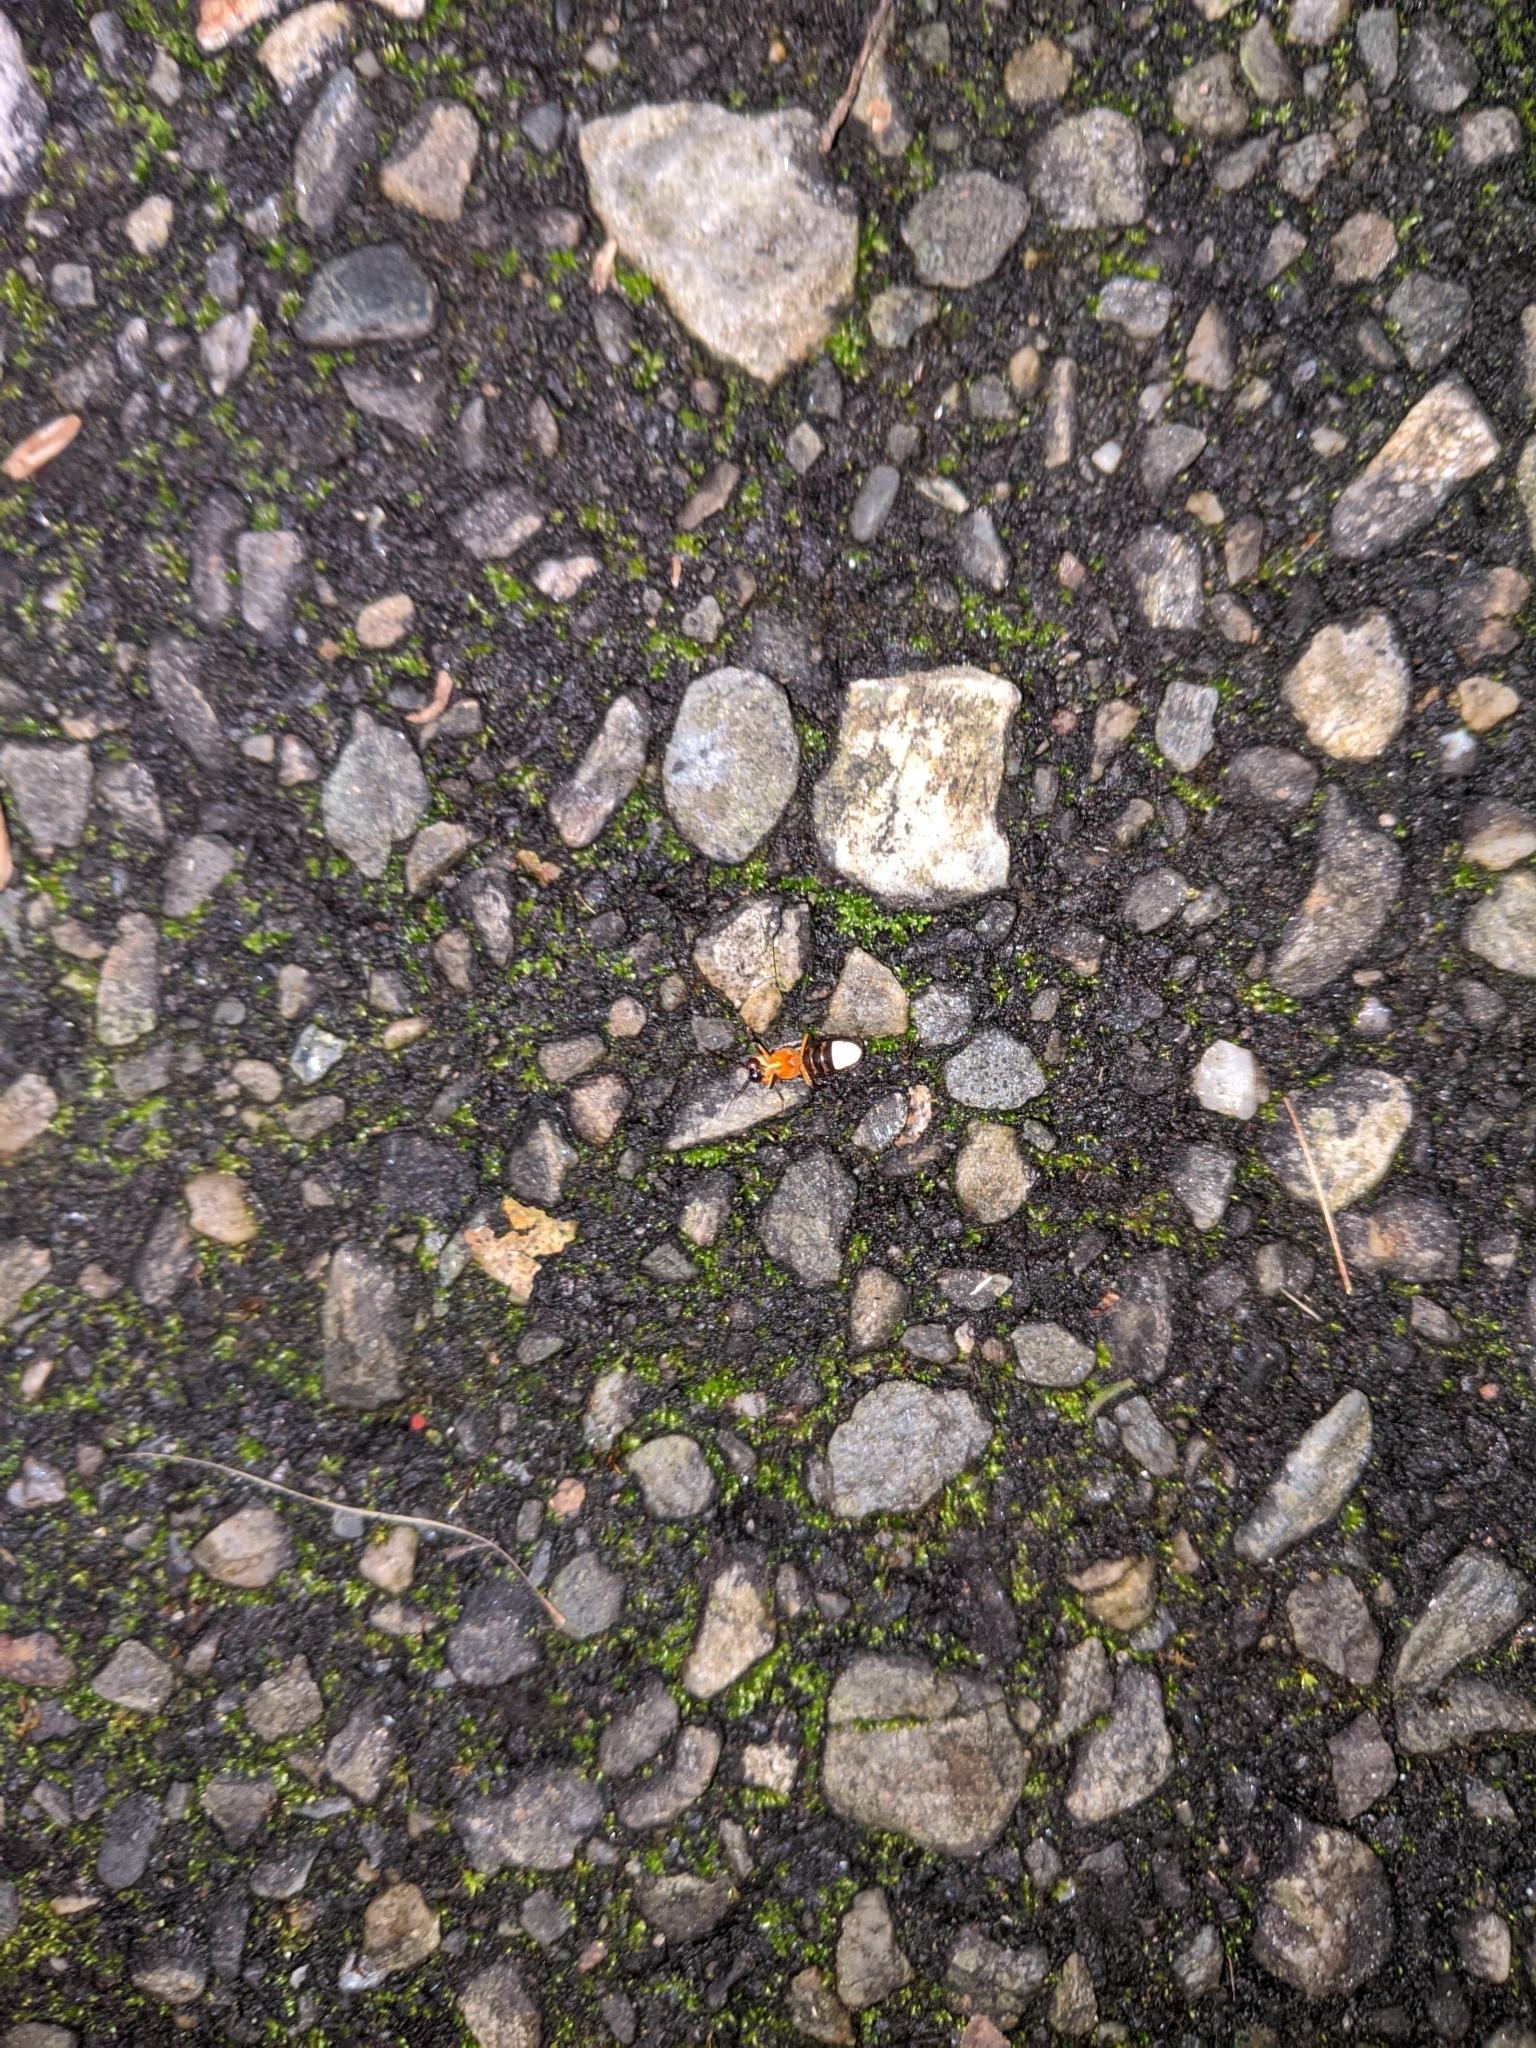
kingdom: Animalia
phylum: Arthropoda
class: Insecta
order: Coleoptera
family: Lampyridae
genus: Abscondita
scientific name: Abscondita cerata
